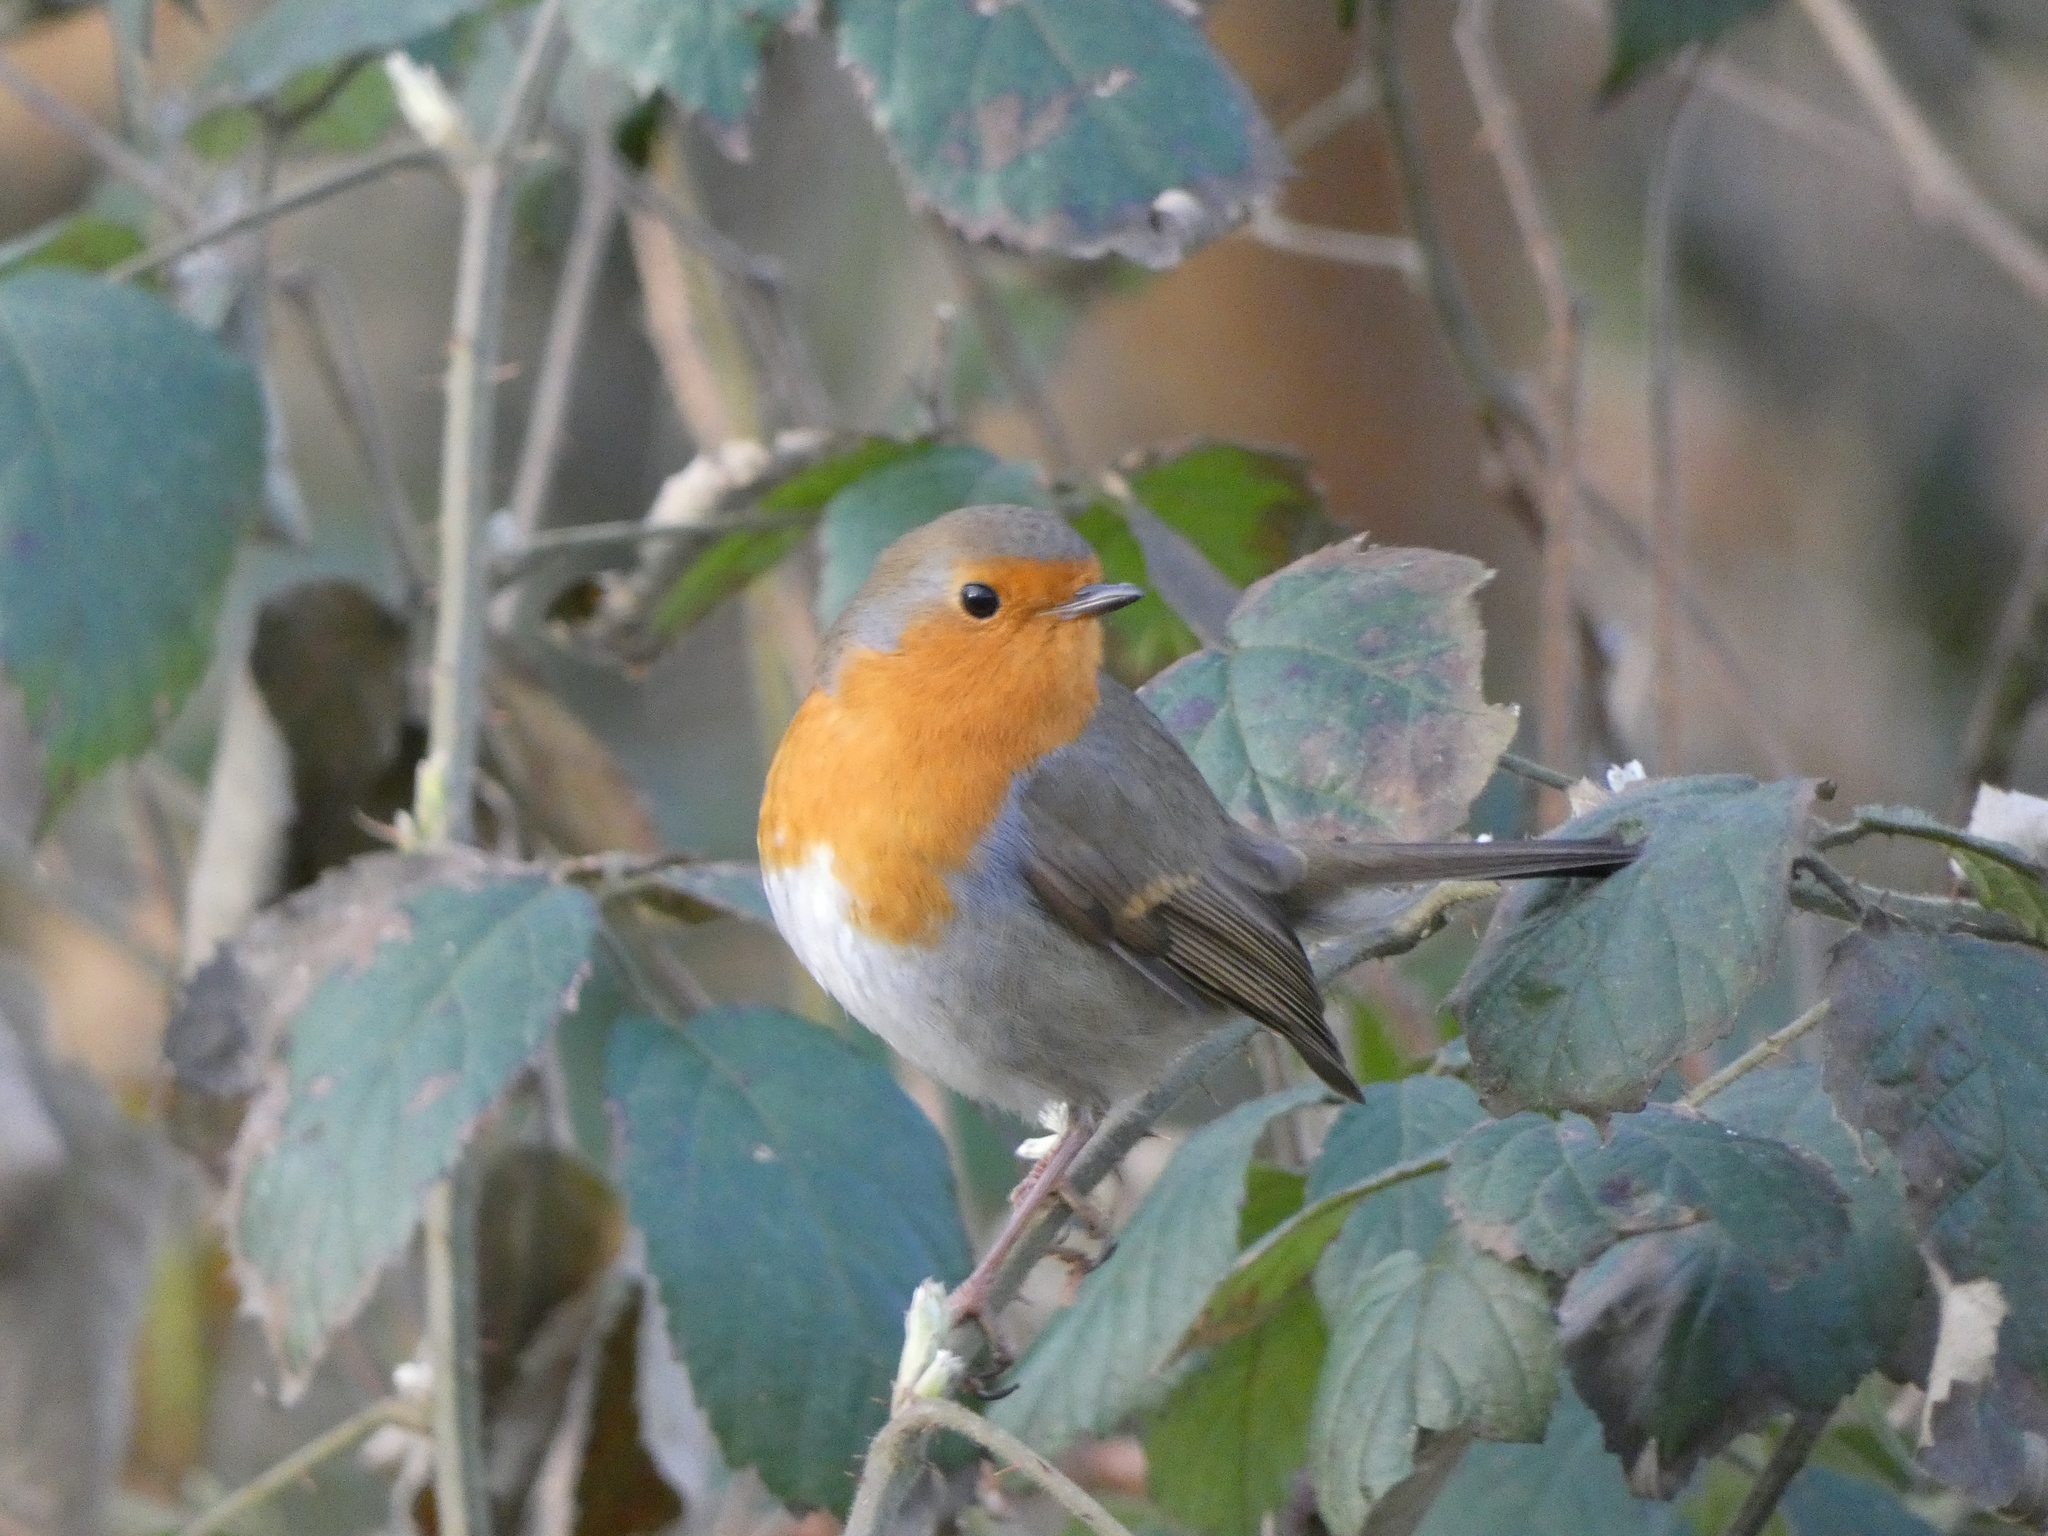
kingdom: Animalia
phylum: Chordata
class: Aves
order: Passeriformes
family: Muscicapidae
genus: Erithacus
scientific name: Erithacus rubecula
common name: European robin
